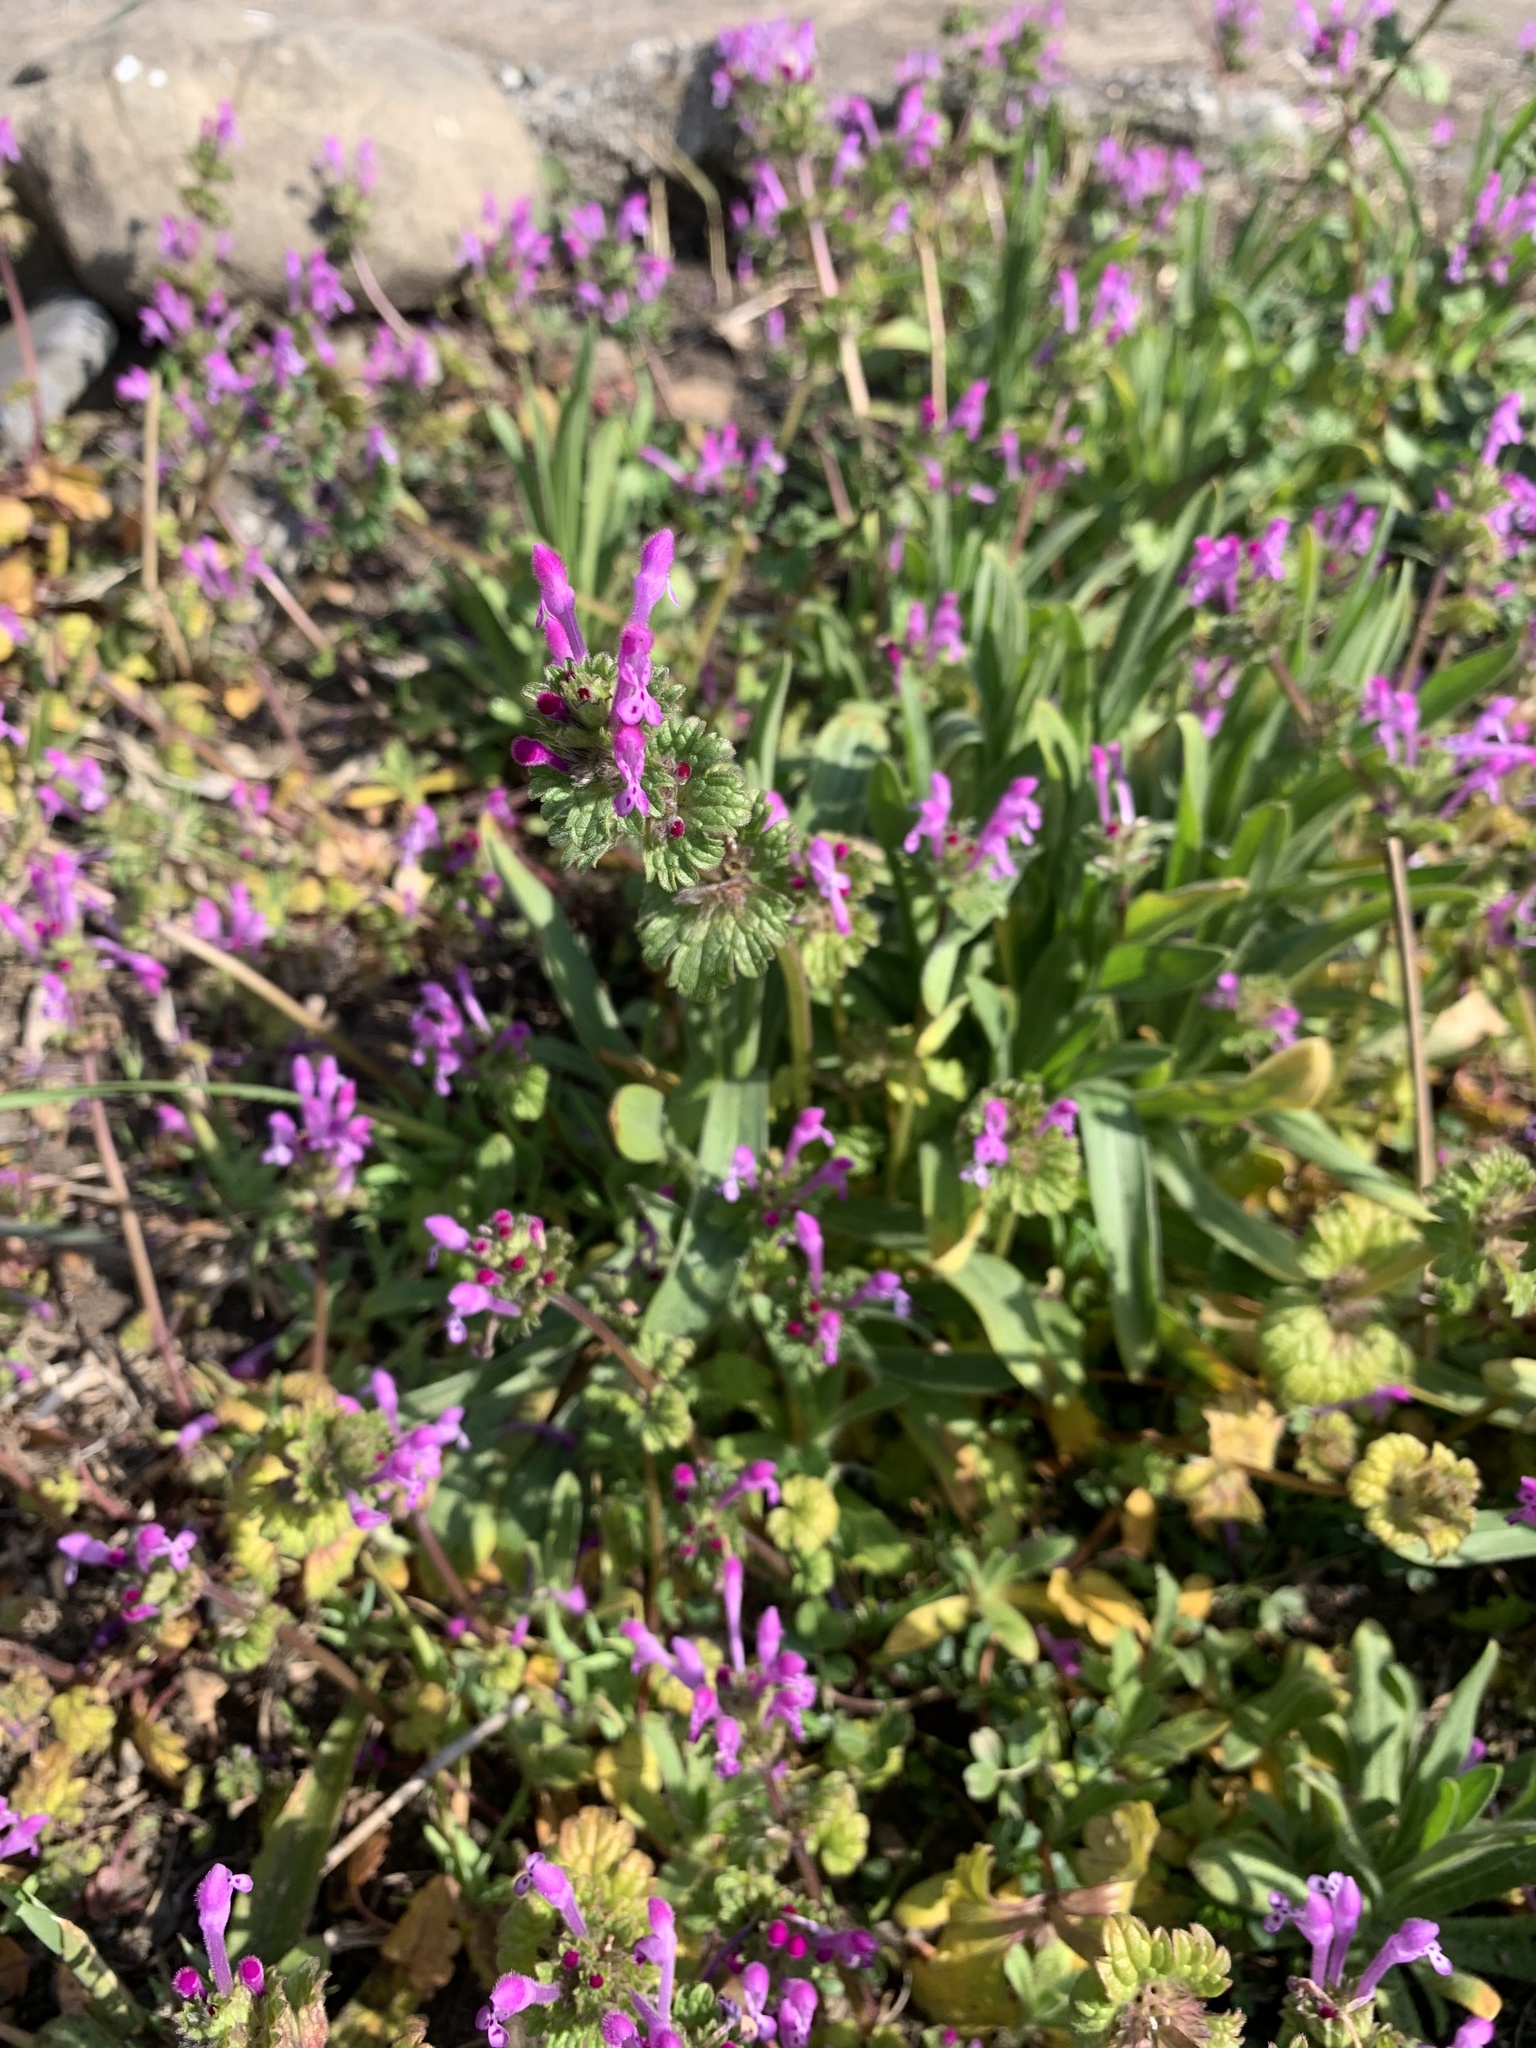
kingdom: Plantae
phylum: Tracheophyta
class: Magnoliopsida
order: Lamiales
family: Lamiaceae
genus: Lamium
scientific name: Lamium amplexicaule
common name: Henbit dead-nettle
